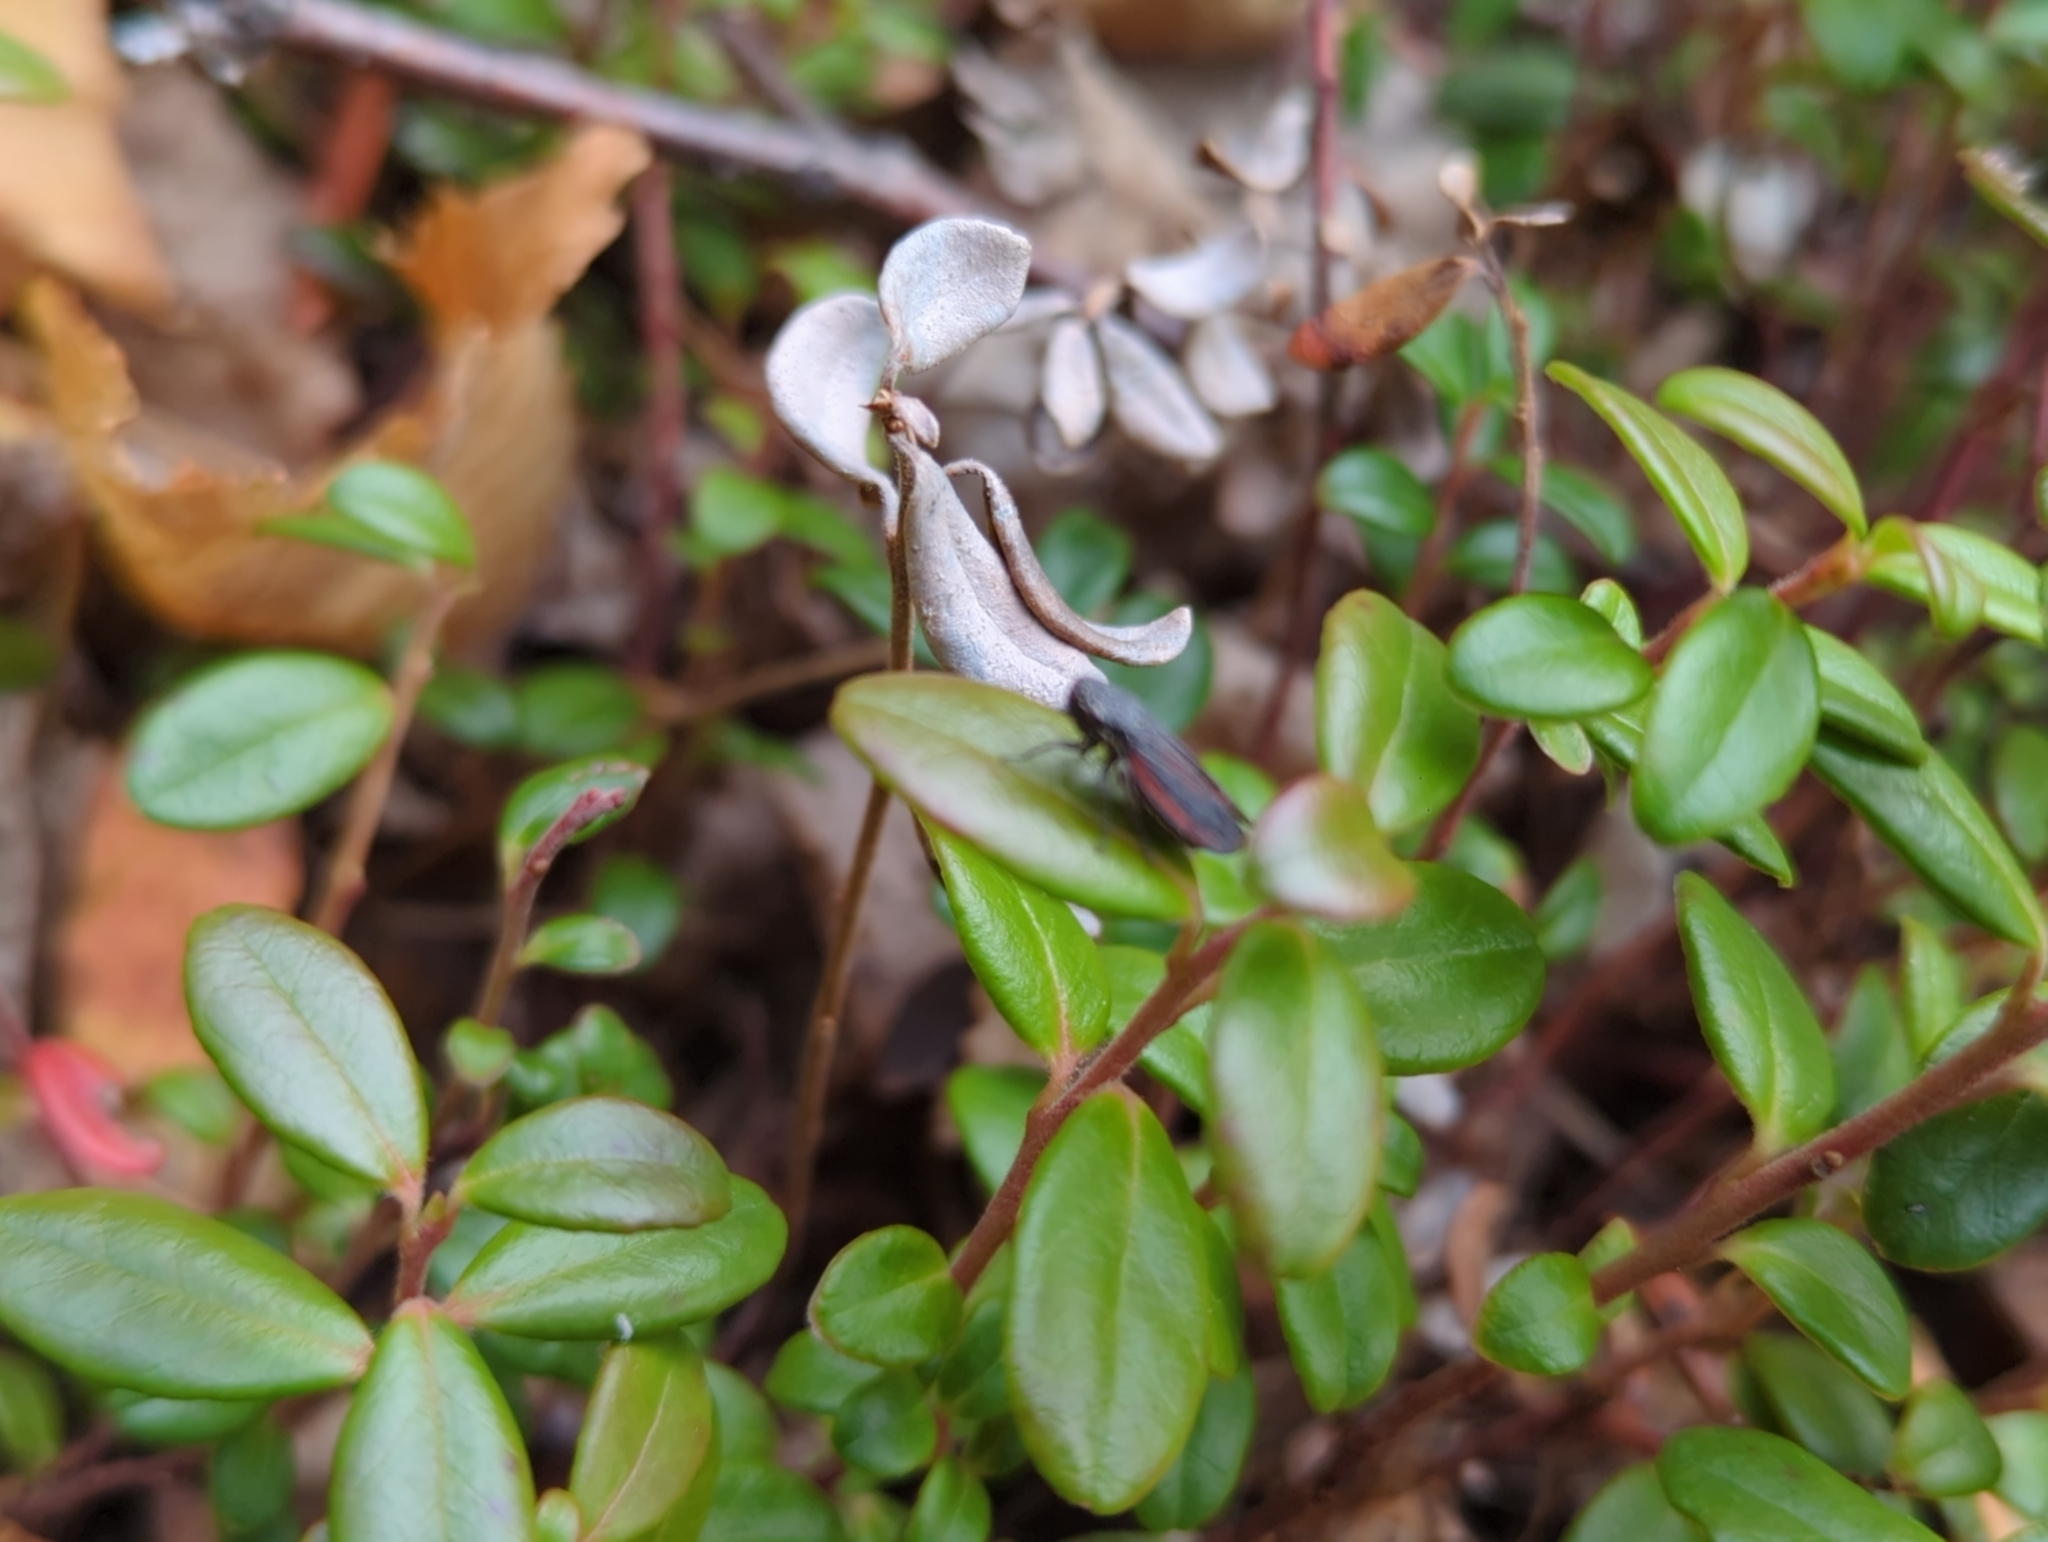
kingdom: Animalia
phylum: Arthropoda
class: Insecta
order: Hemiptera
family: Cicadellidae
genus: Cuerna
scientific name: Cuerna striata
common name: Striped leafhopper
